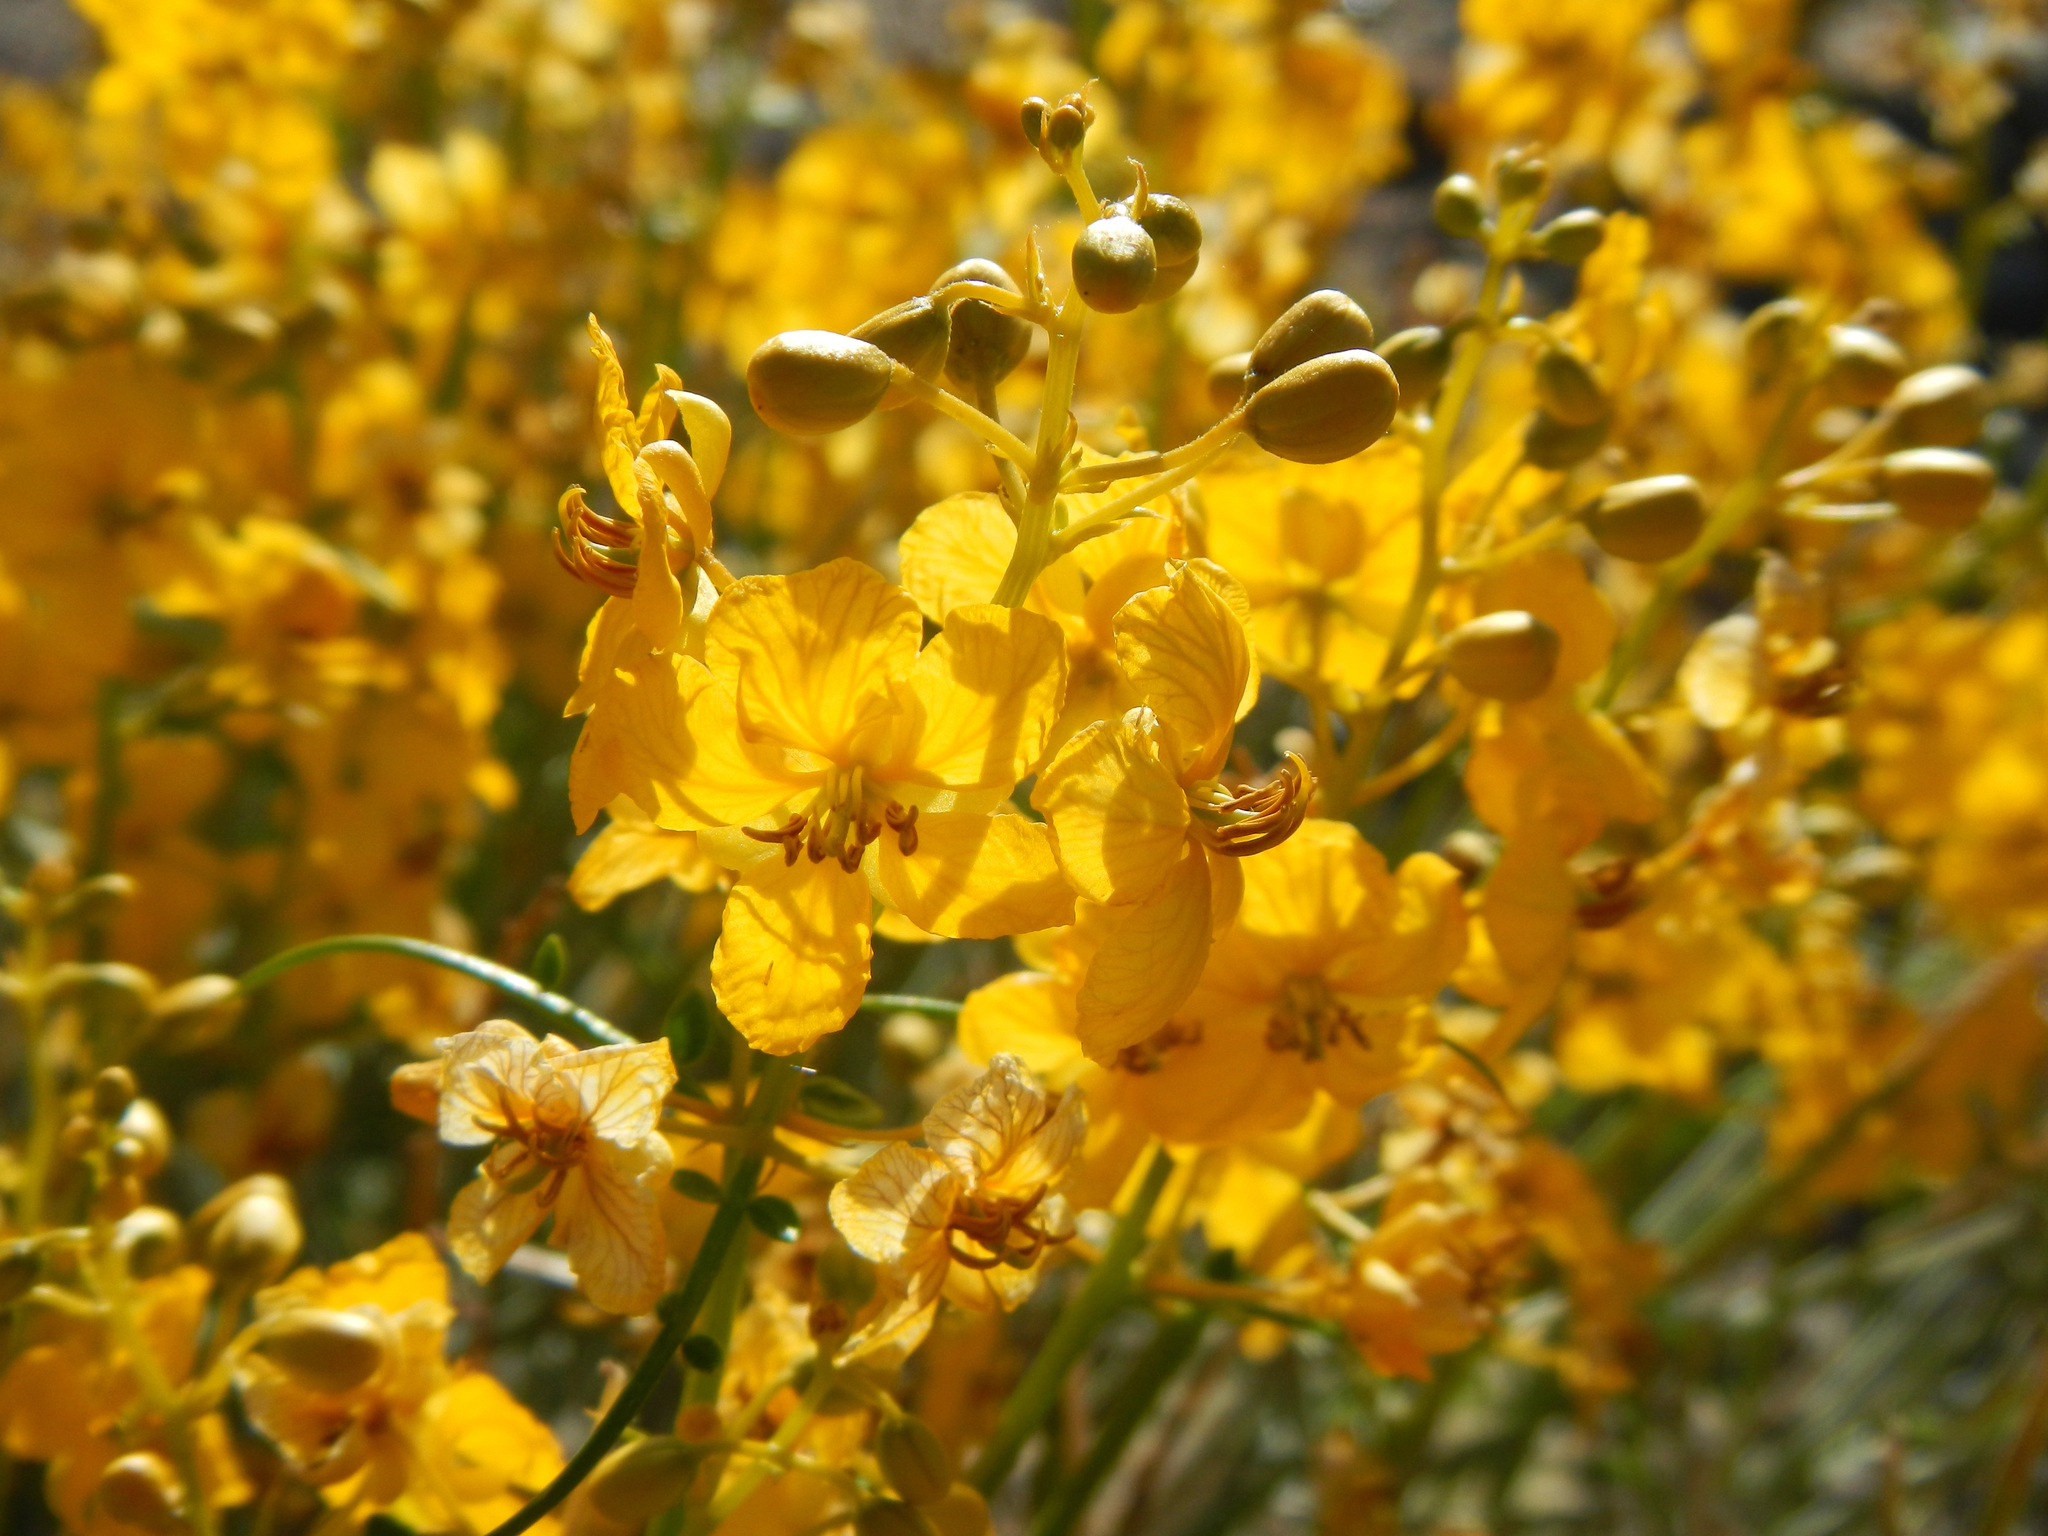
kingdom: Plantae
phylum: Tracheophyta
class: Magnoliopsida
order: Fabales
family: Fabaceae
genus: Senna
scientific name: Senna armata
